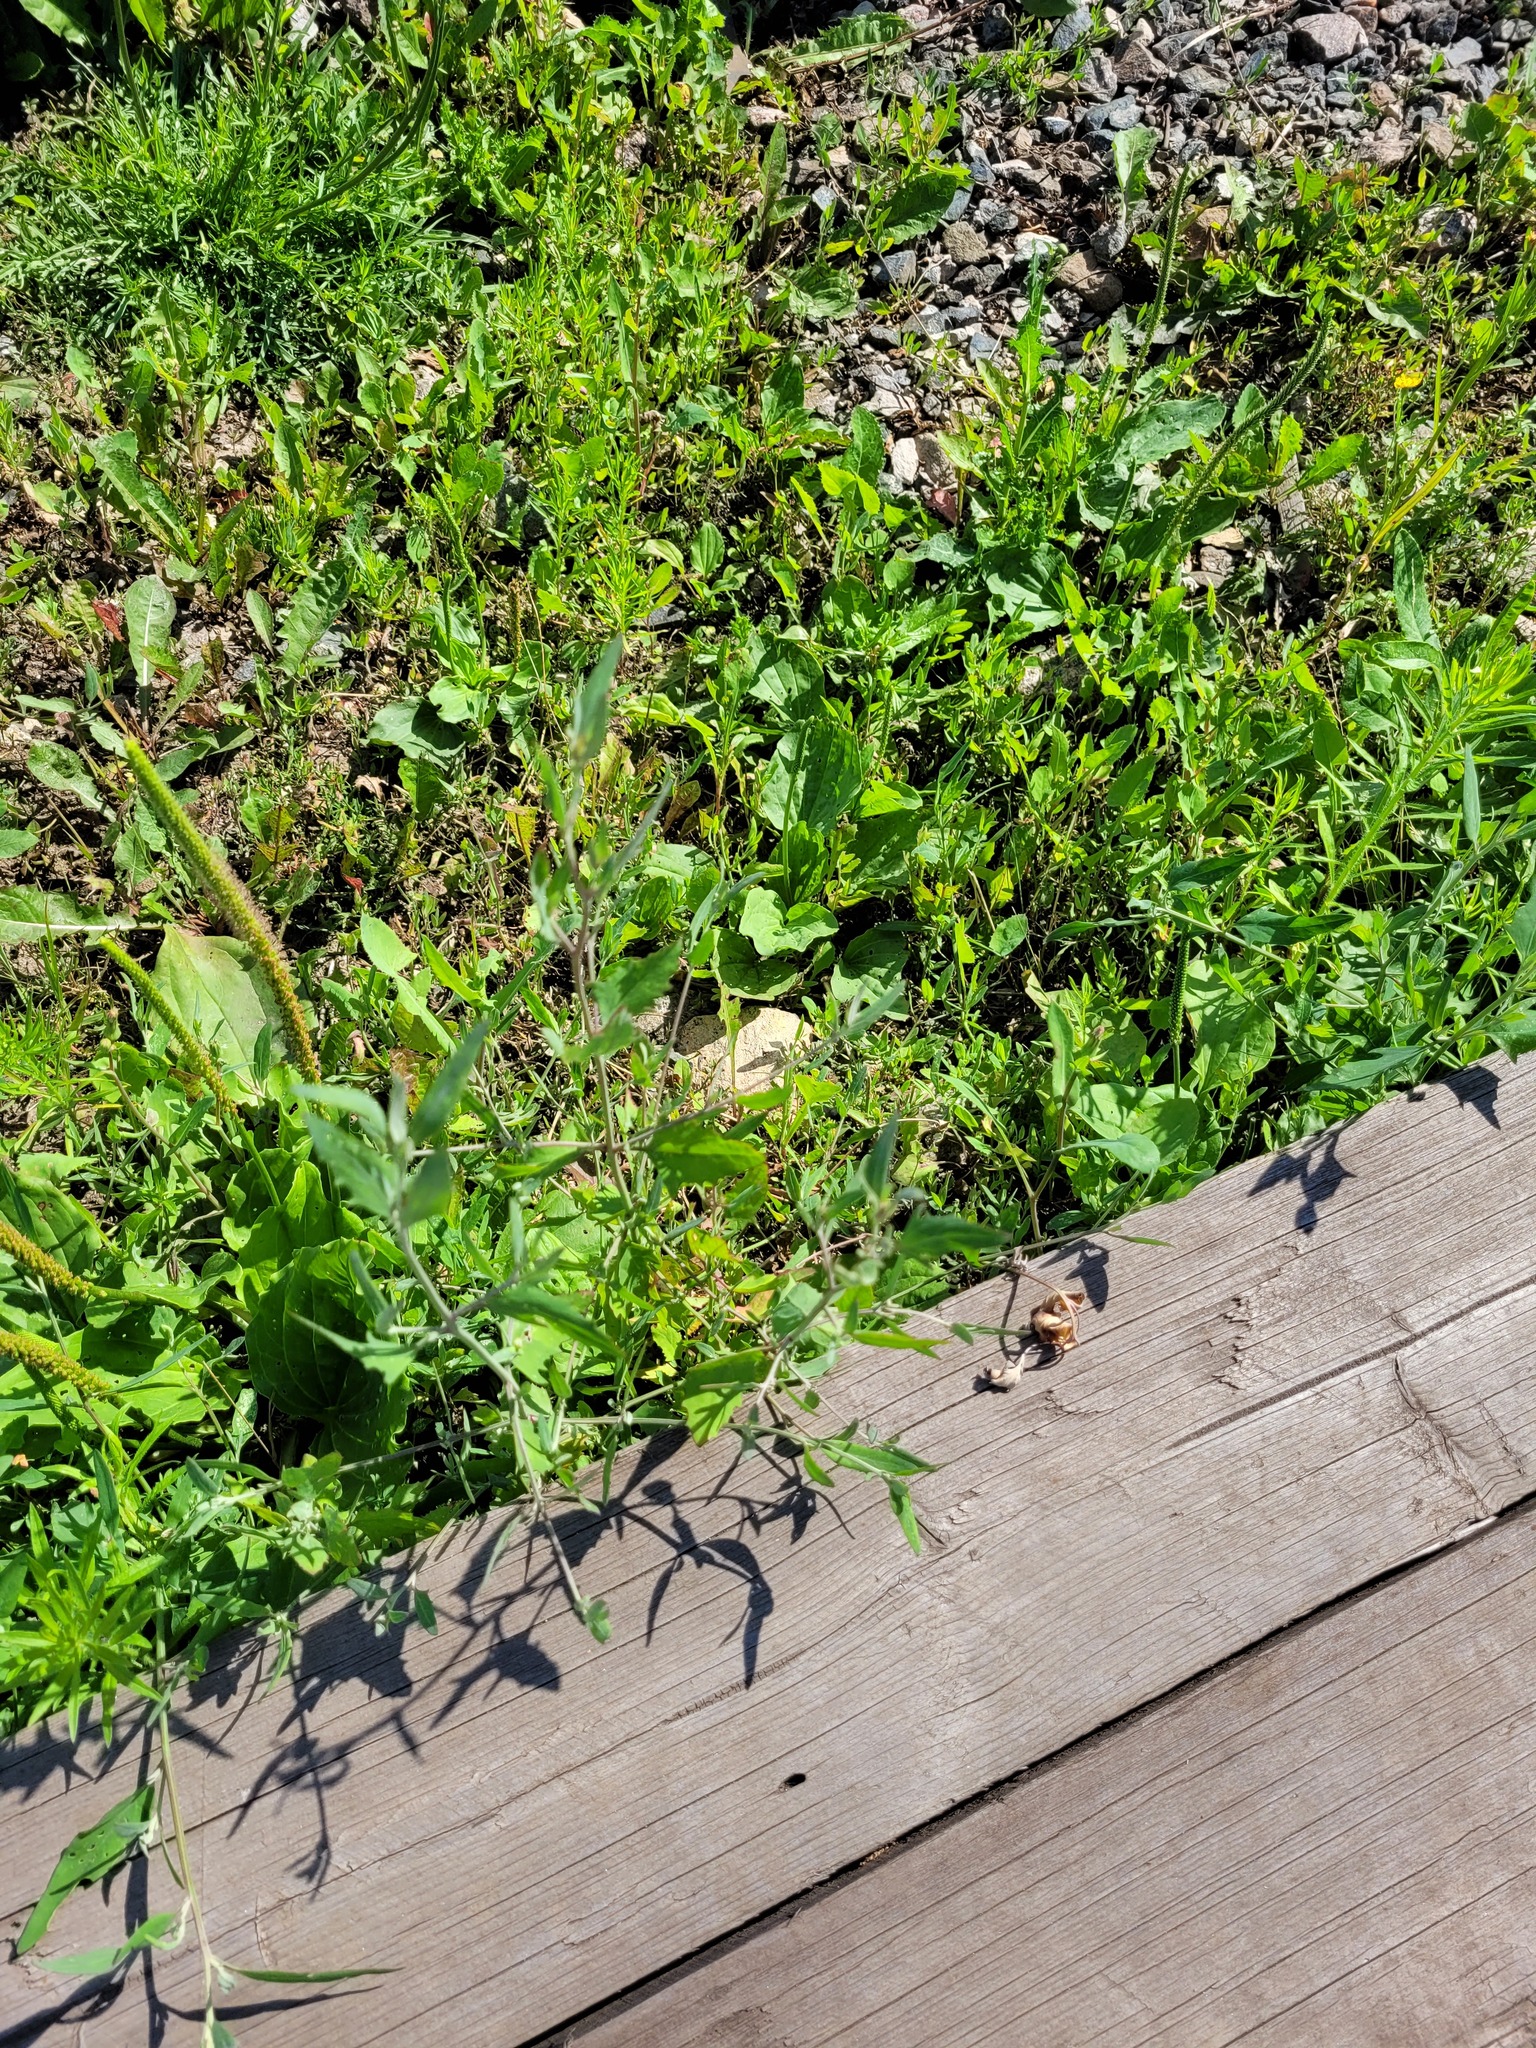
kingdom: Plantae
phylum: Tracheophyta
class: Magnoliopsida
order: Caryophyllales
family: Amaranthaceae
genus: Atriplex
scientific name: Atriplex patula
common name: Common orache
